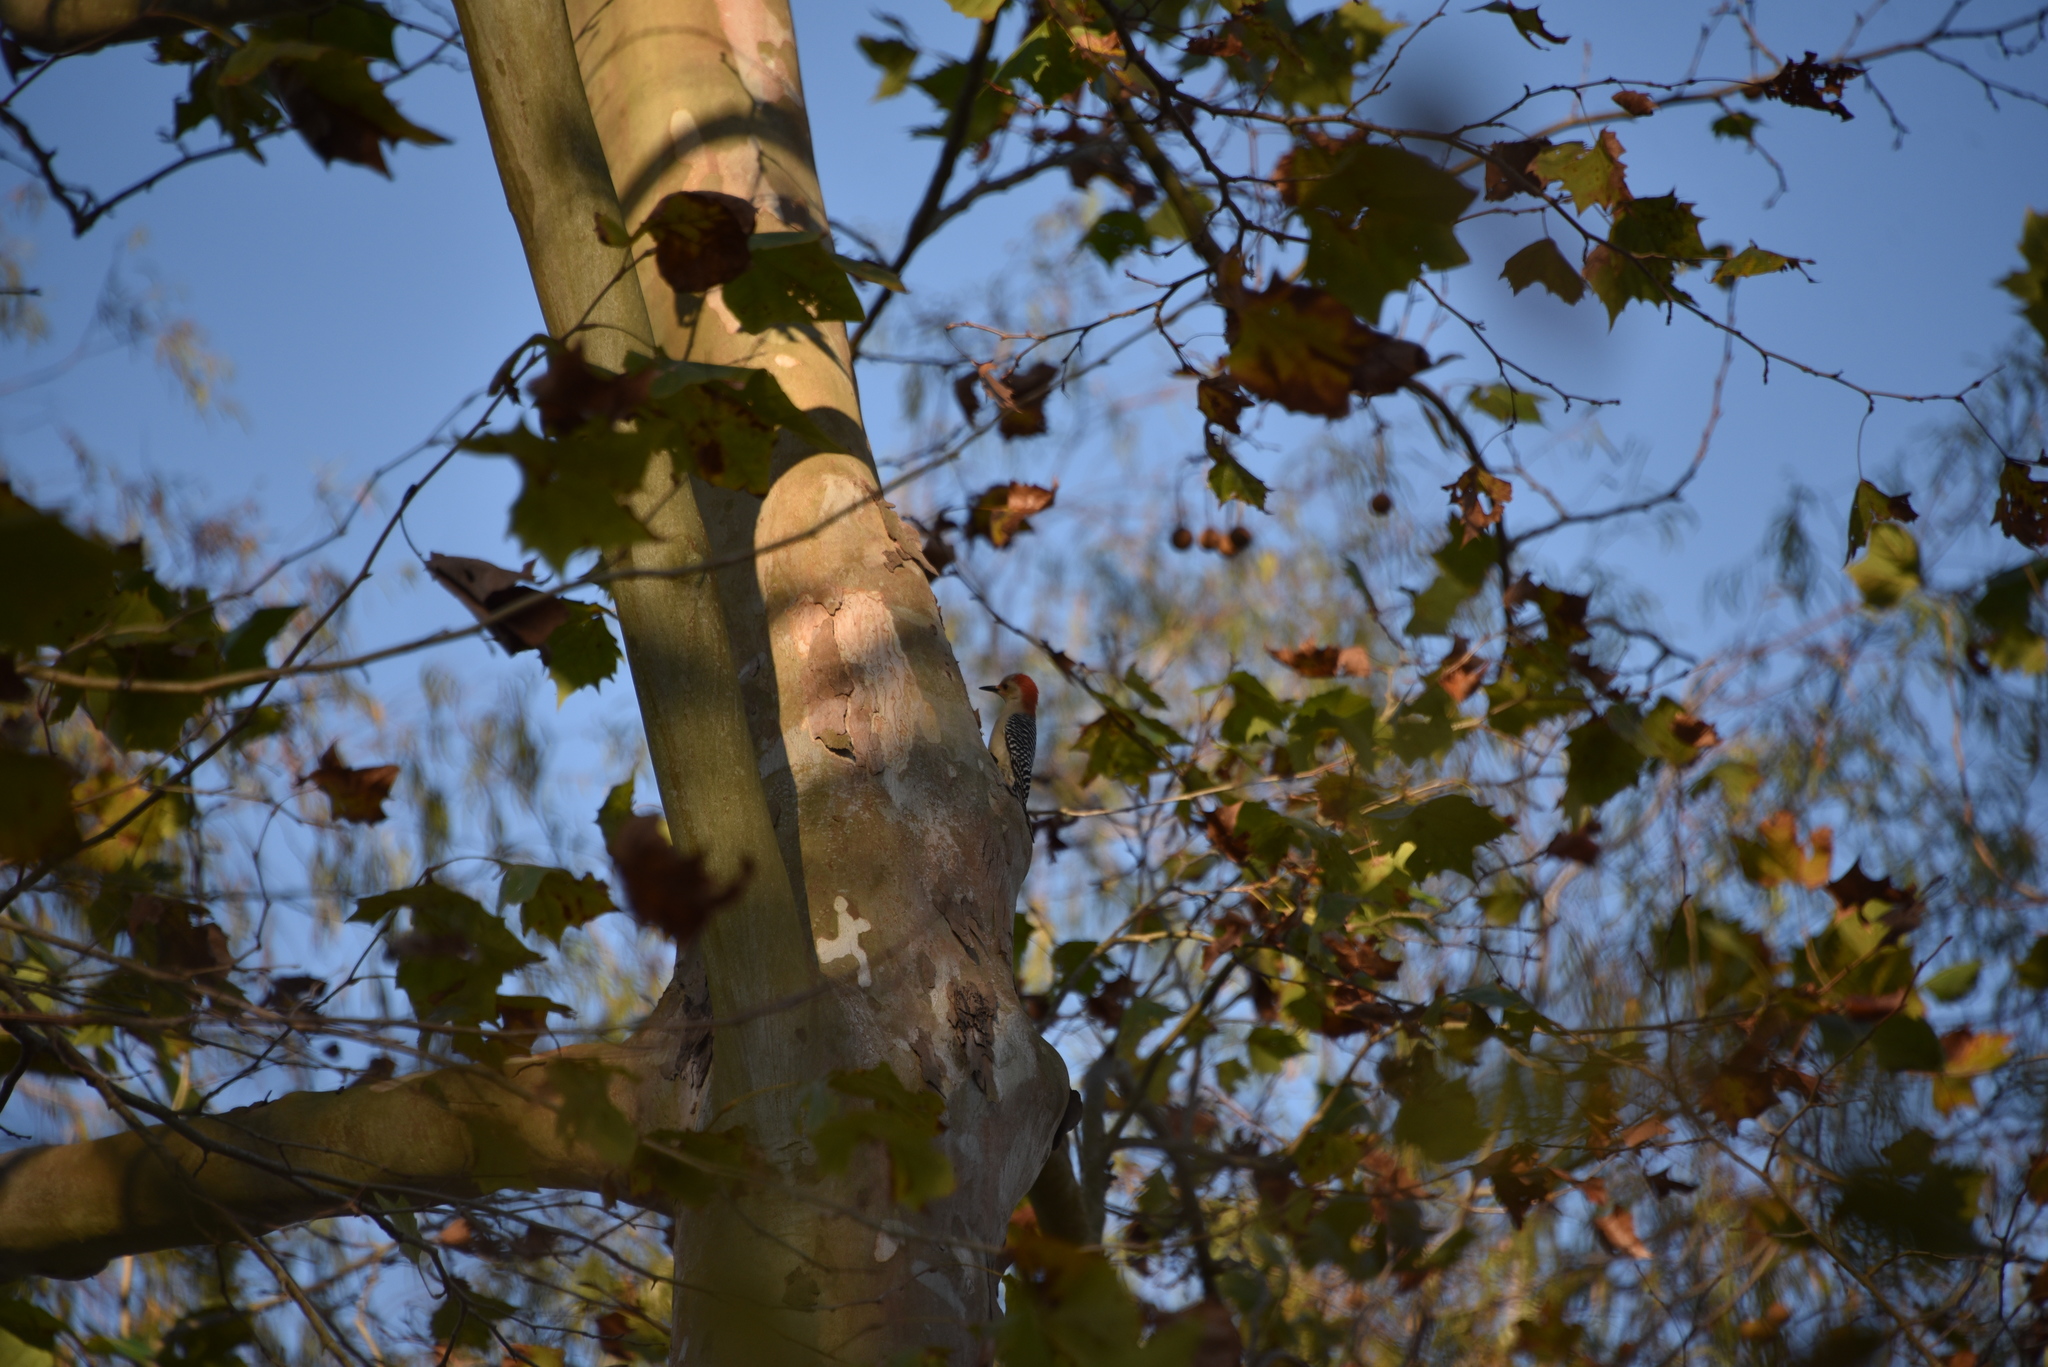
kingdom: Animalia
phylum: Chordata
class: Aves
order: Piciformes
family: Picidae
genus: Melanerpes
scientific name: Melanerpes carolinus
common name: Red-bellied woodpecker
